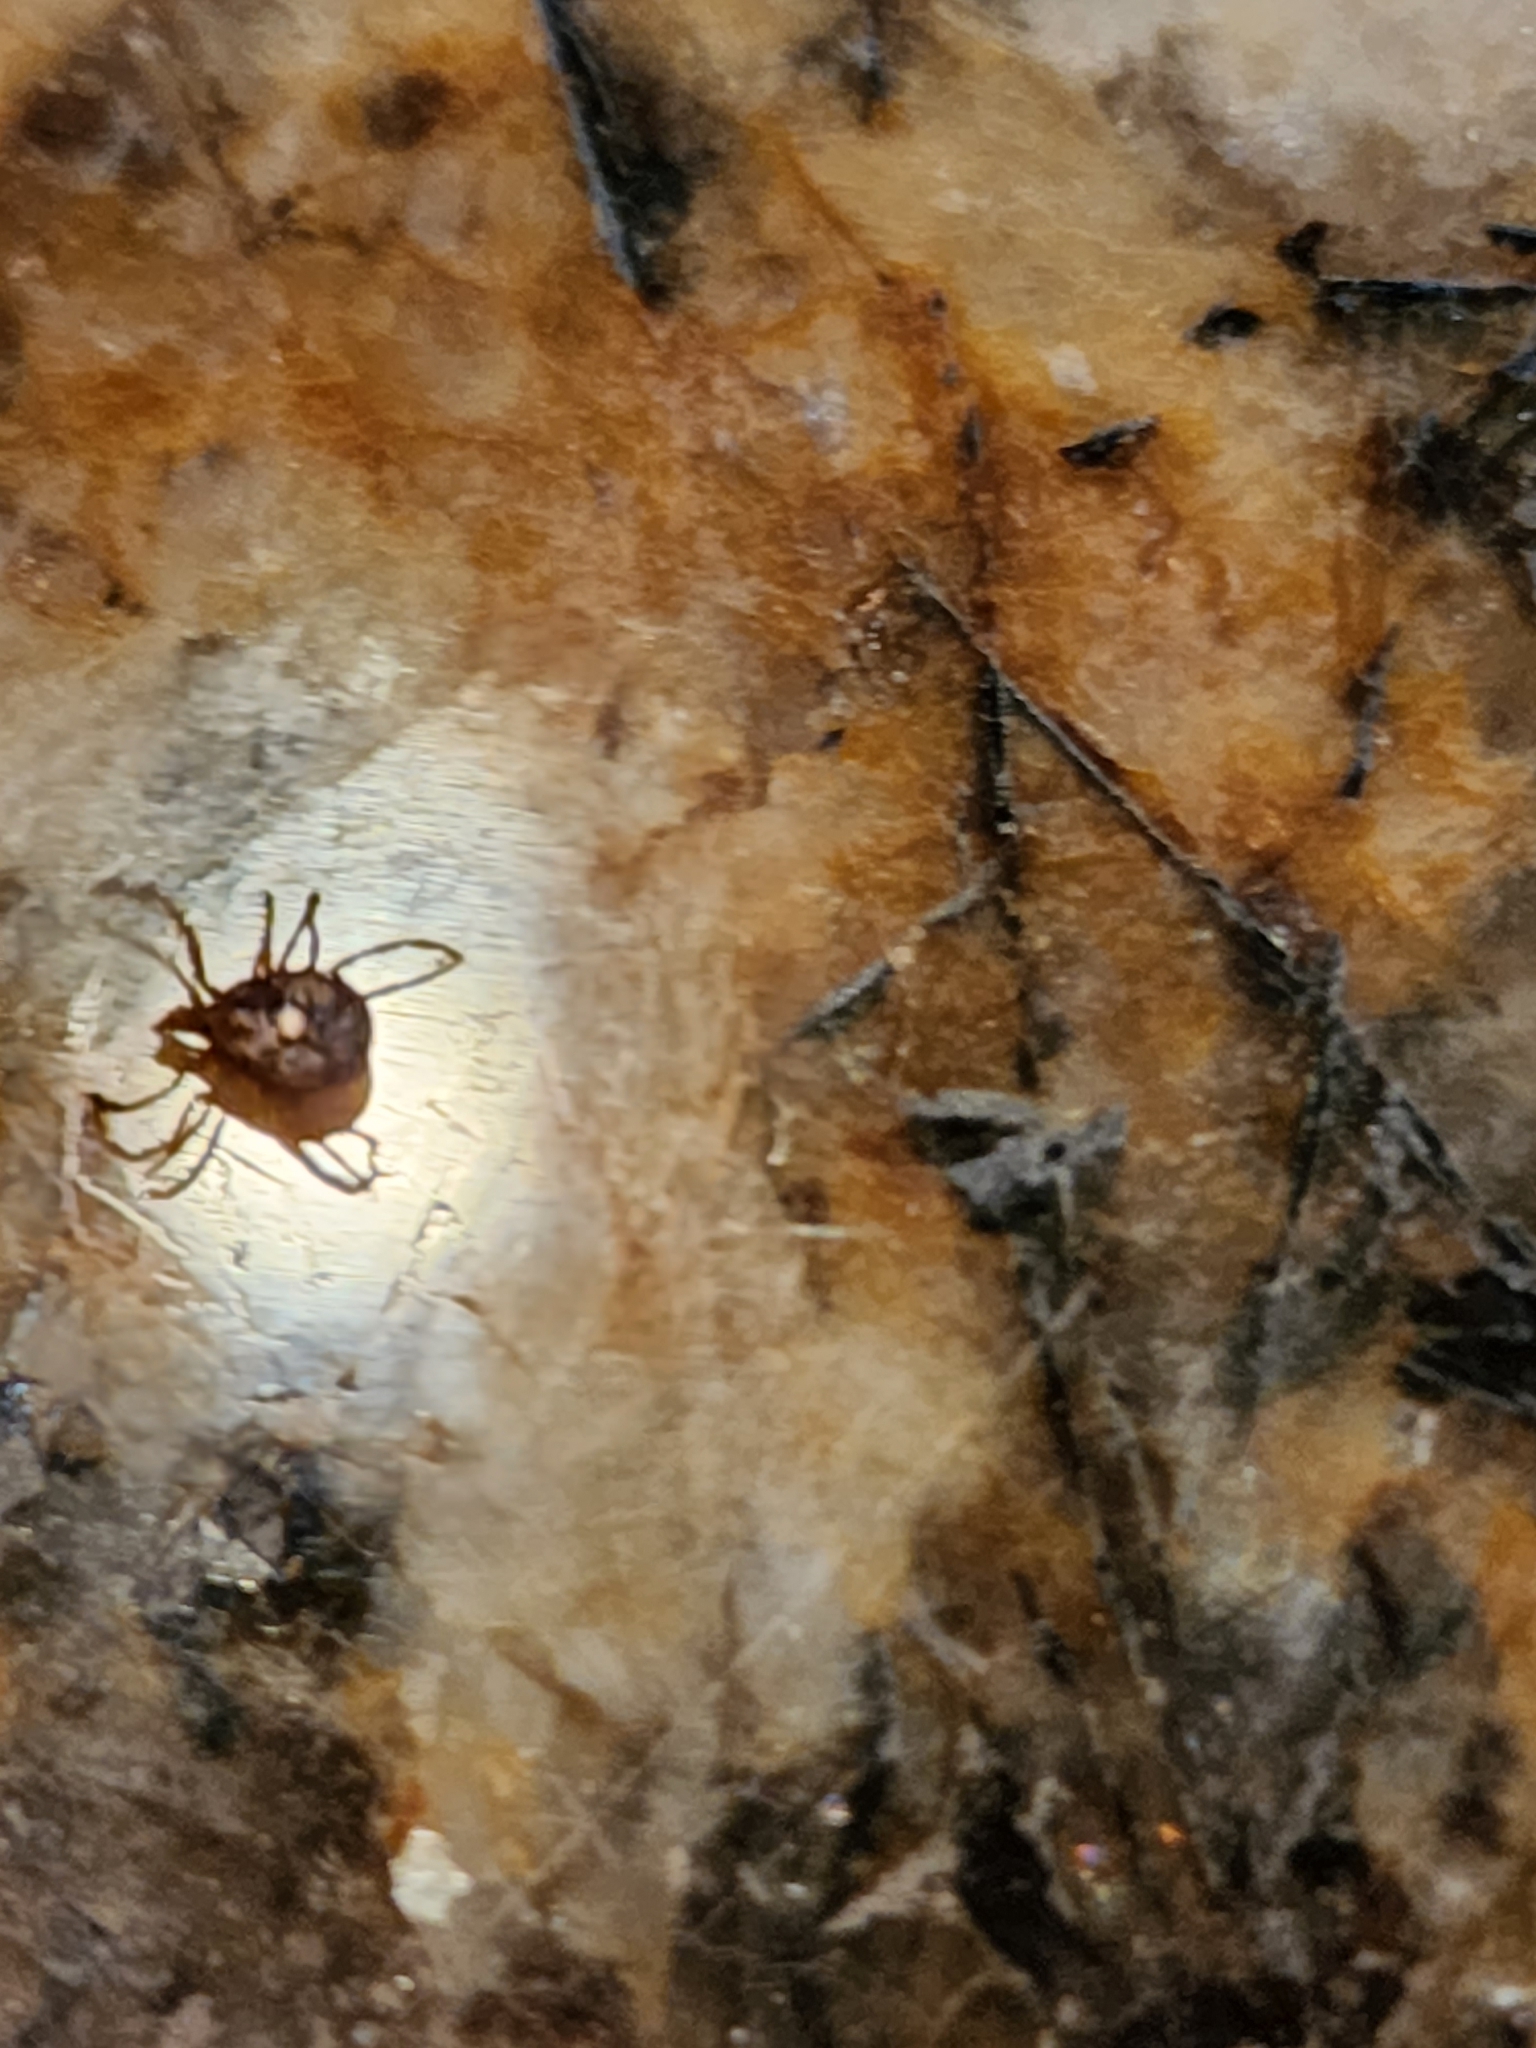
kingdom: Animalia
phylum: Arthropoda
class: Arachnida
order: Ixodida
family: Ixodidae
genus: Amblyomma
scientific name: Amblyomma americanum
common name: Lone star tick
